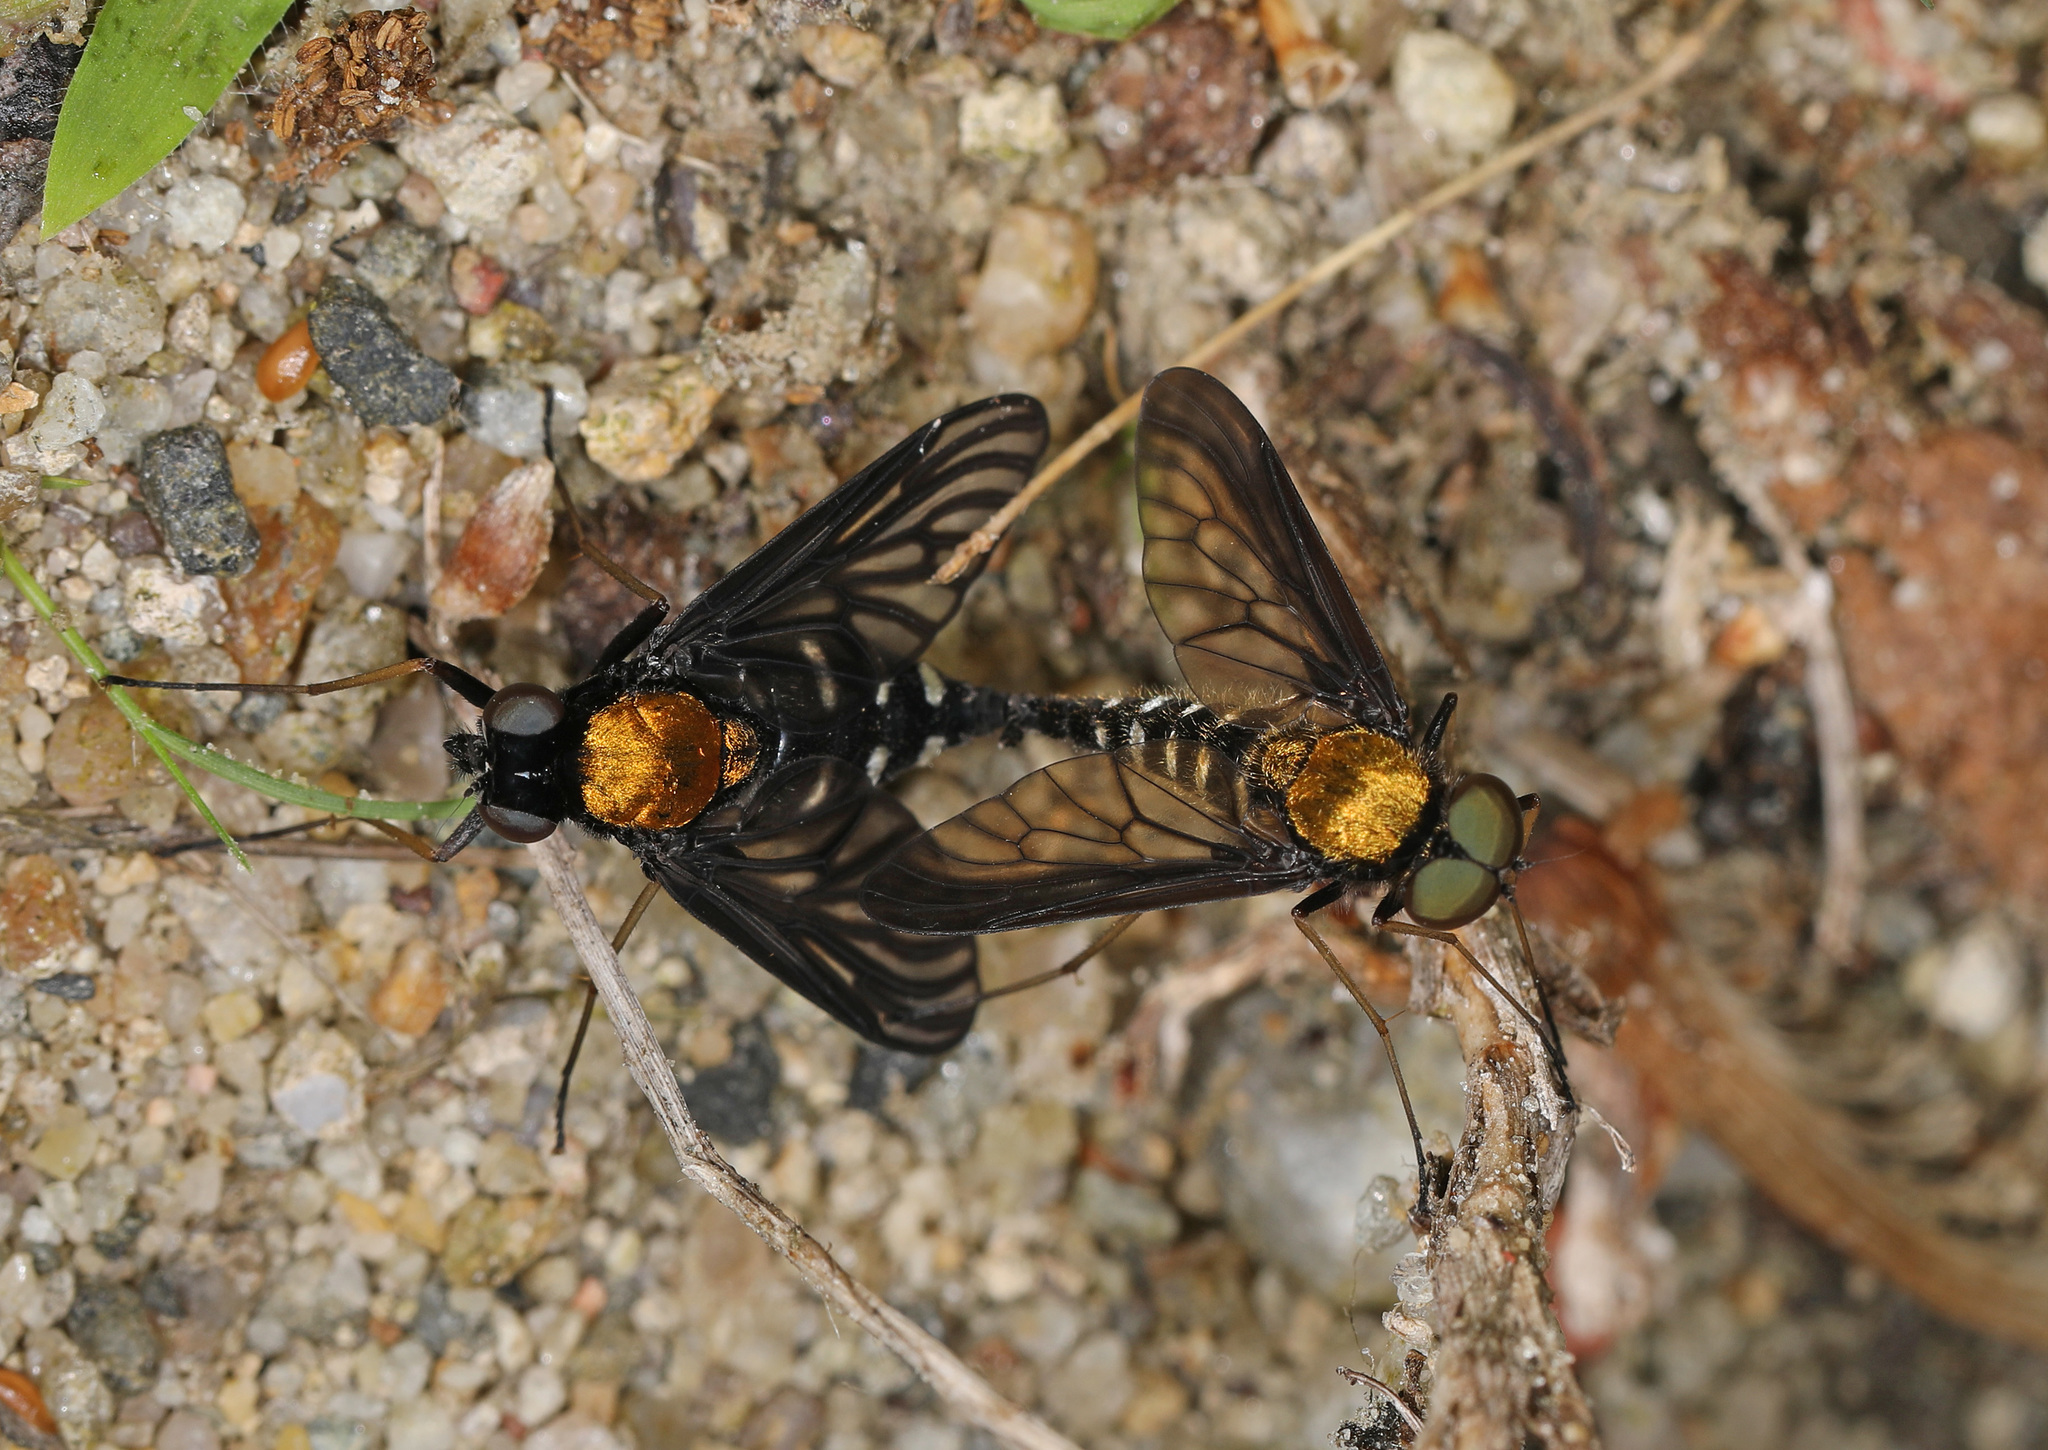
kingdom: Animalia
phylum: Arthropoda
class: Insecta
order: Diptera
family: Rhagionidae
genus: Chrysopilus
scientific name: Chrysopilus thoracicus
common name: Golden-backed snipe fly
